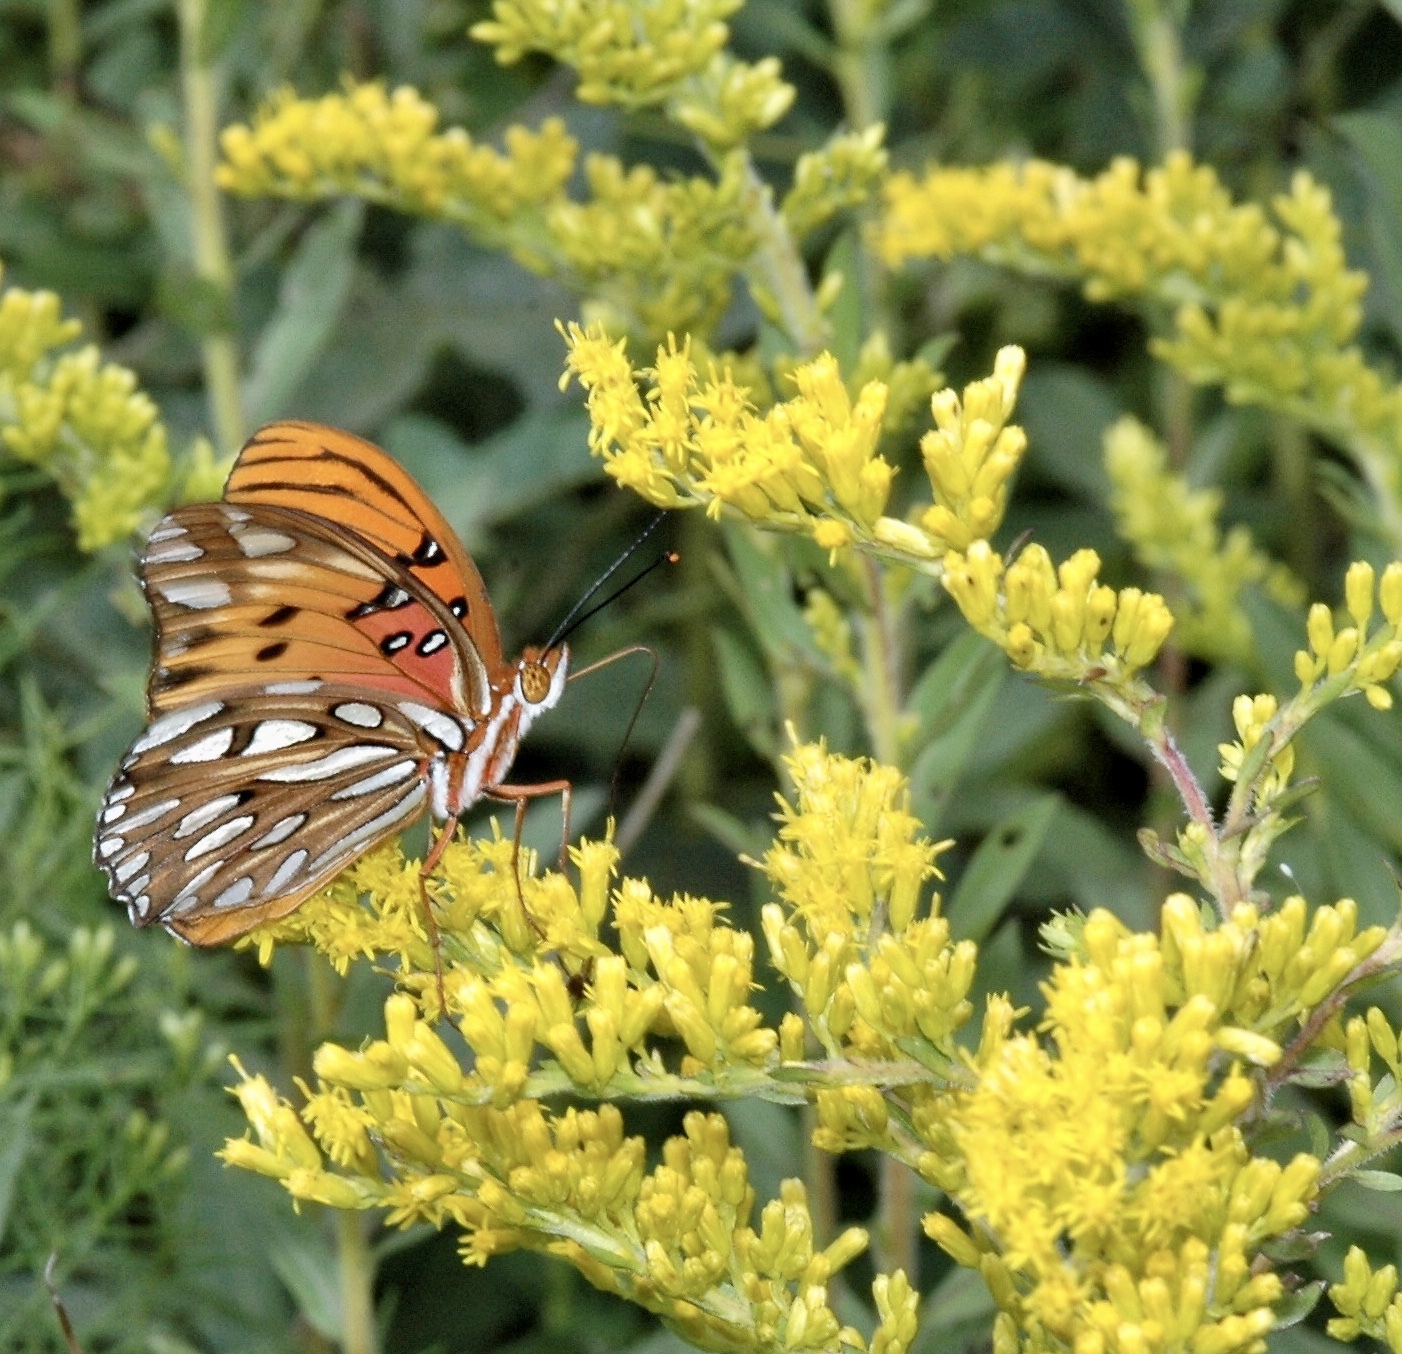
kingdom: Animalia
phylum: Arthropoda
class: Insecta
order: Lepidoptera
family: Nymphalidae
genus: Dione
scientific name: Dione vanillae
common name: Gulf fritillary
